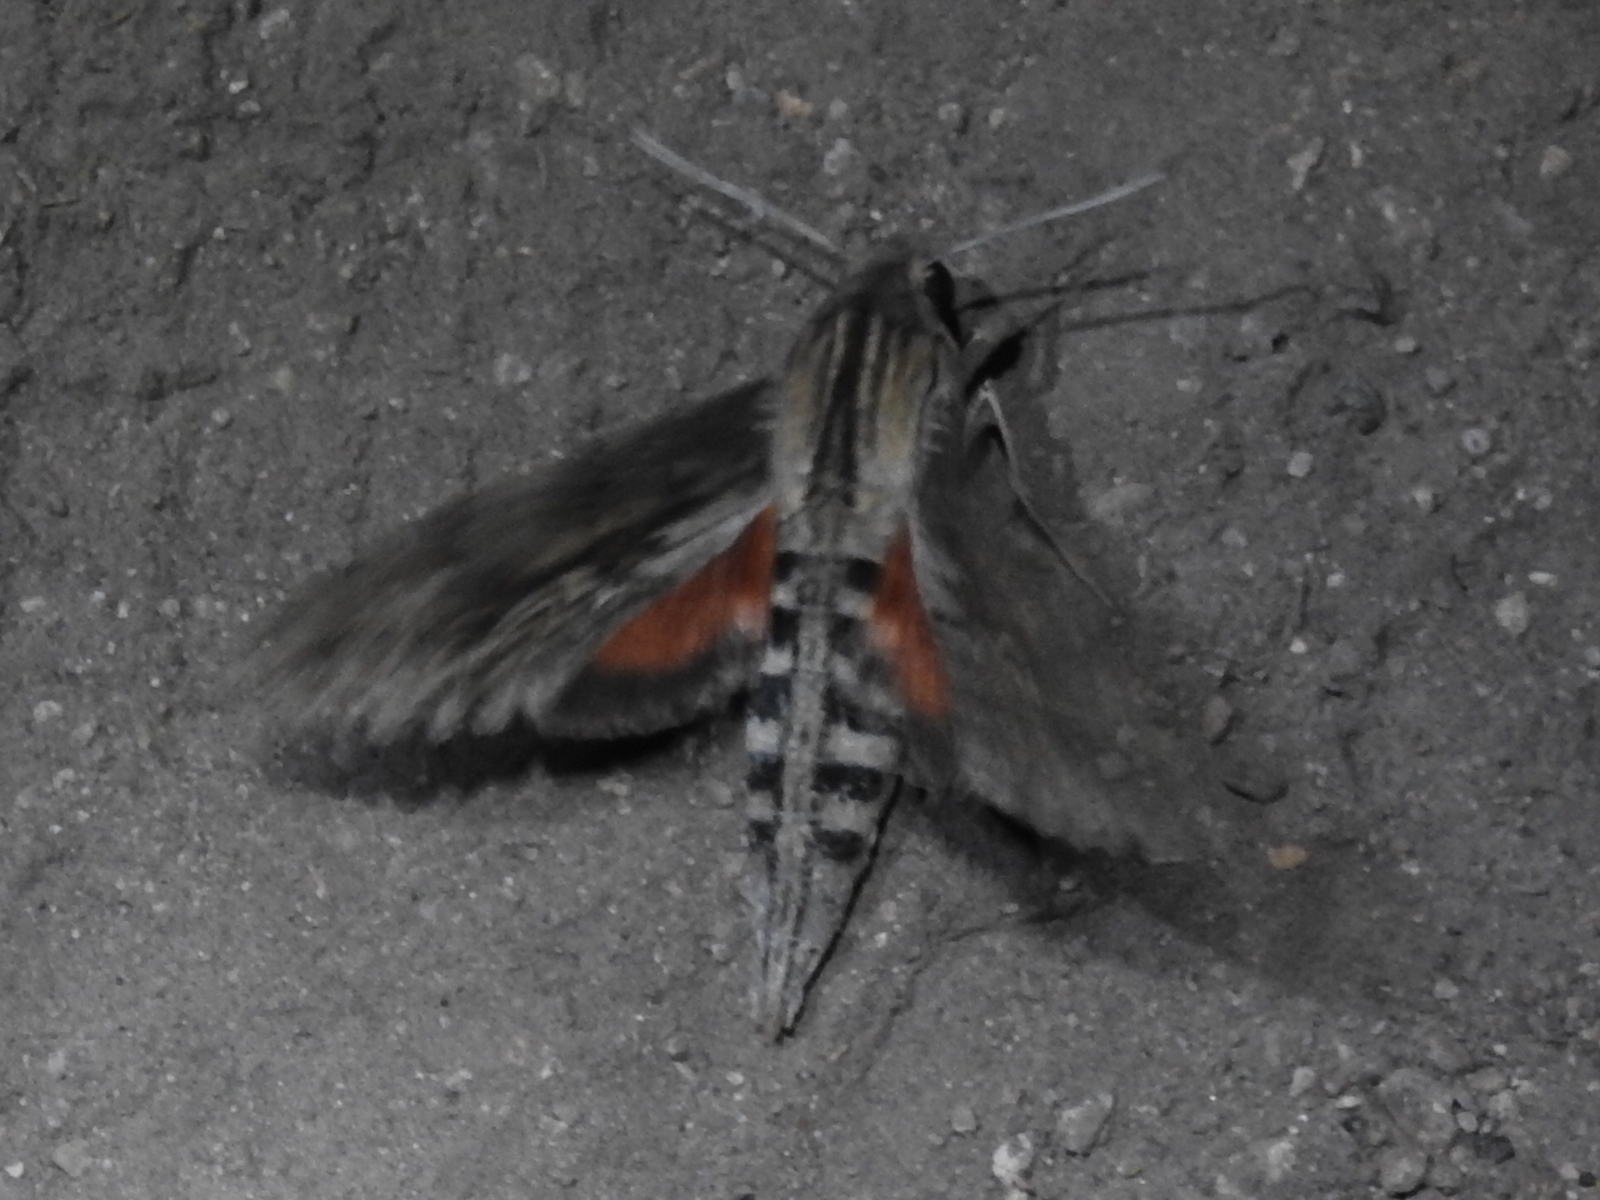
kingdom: Animalia
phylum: Arthropoda
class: Insecta
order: Lepidoptera
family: Sphingidae
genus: Erinnyis
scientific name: Erinnyis ello
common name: Ello sphinx
